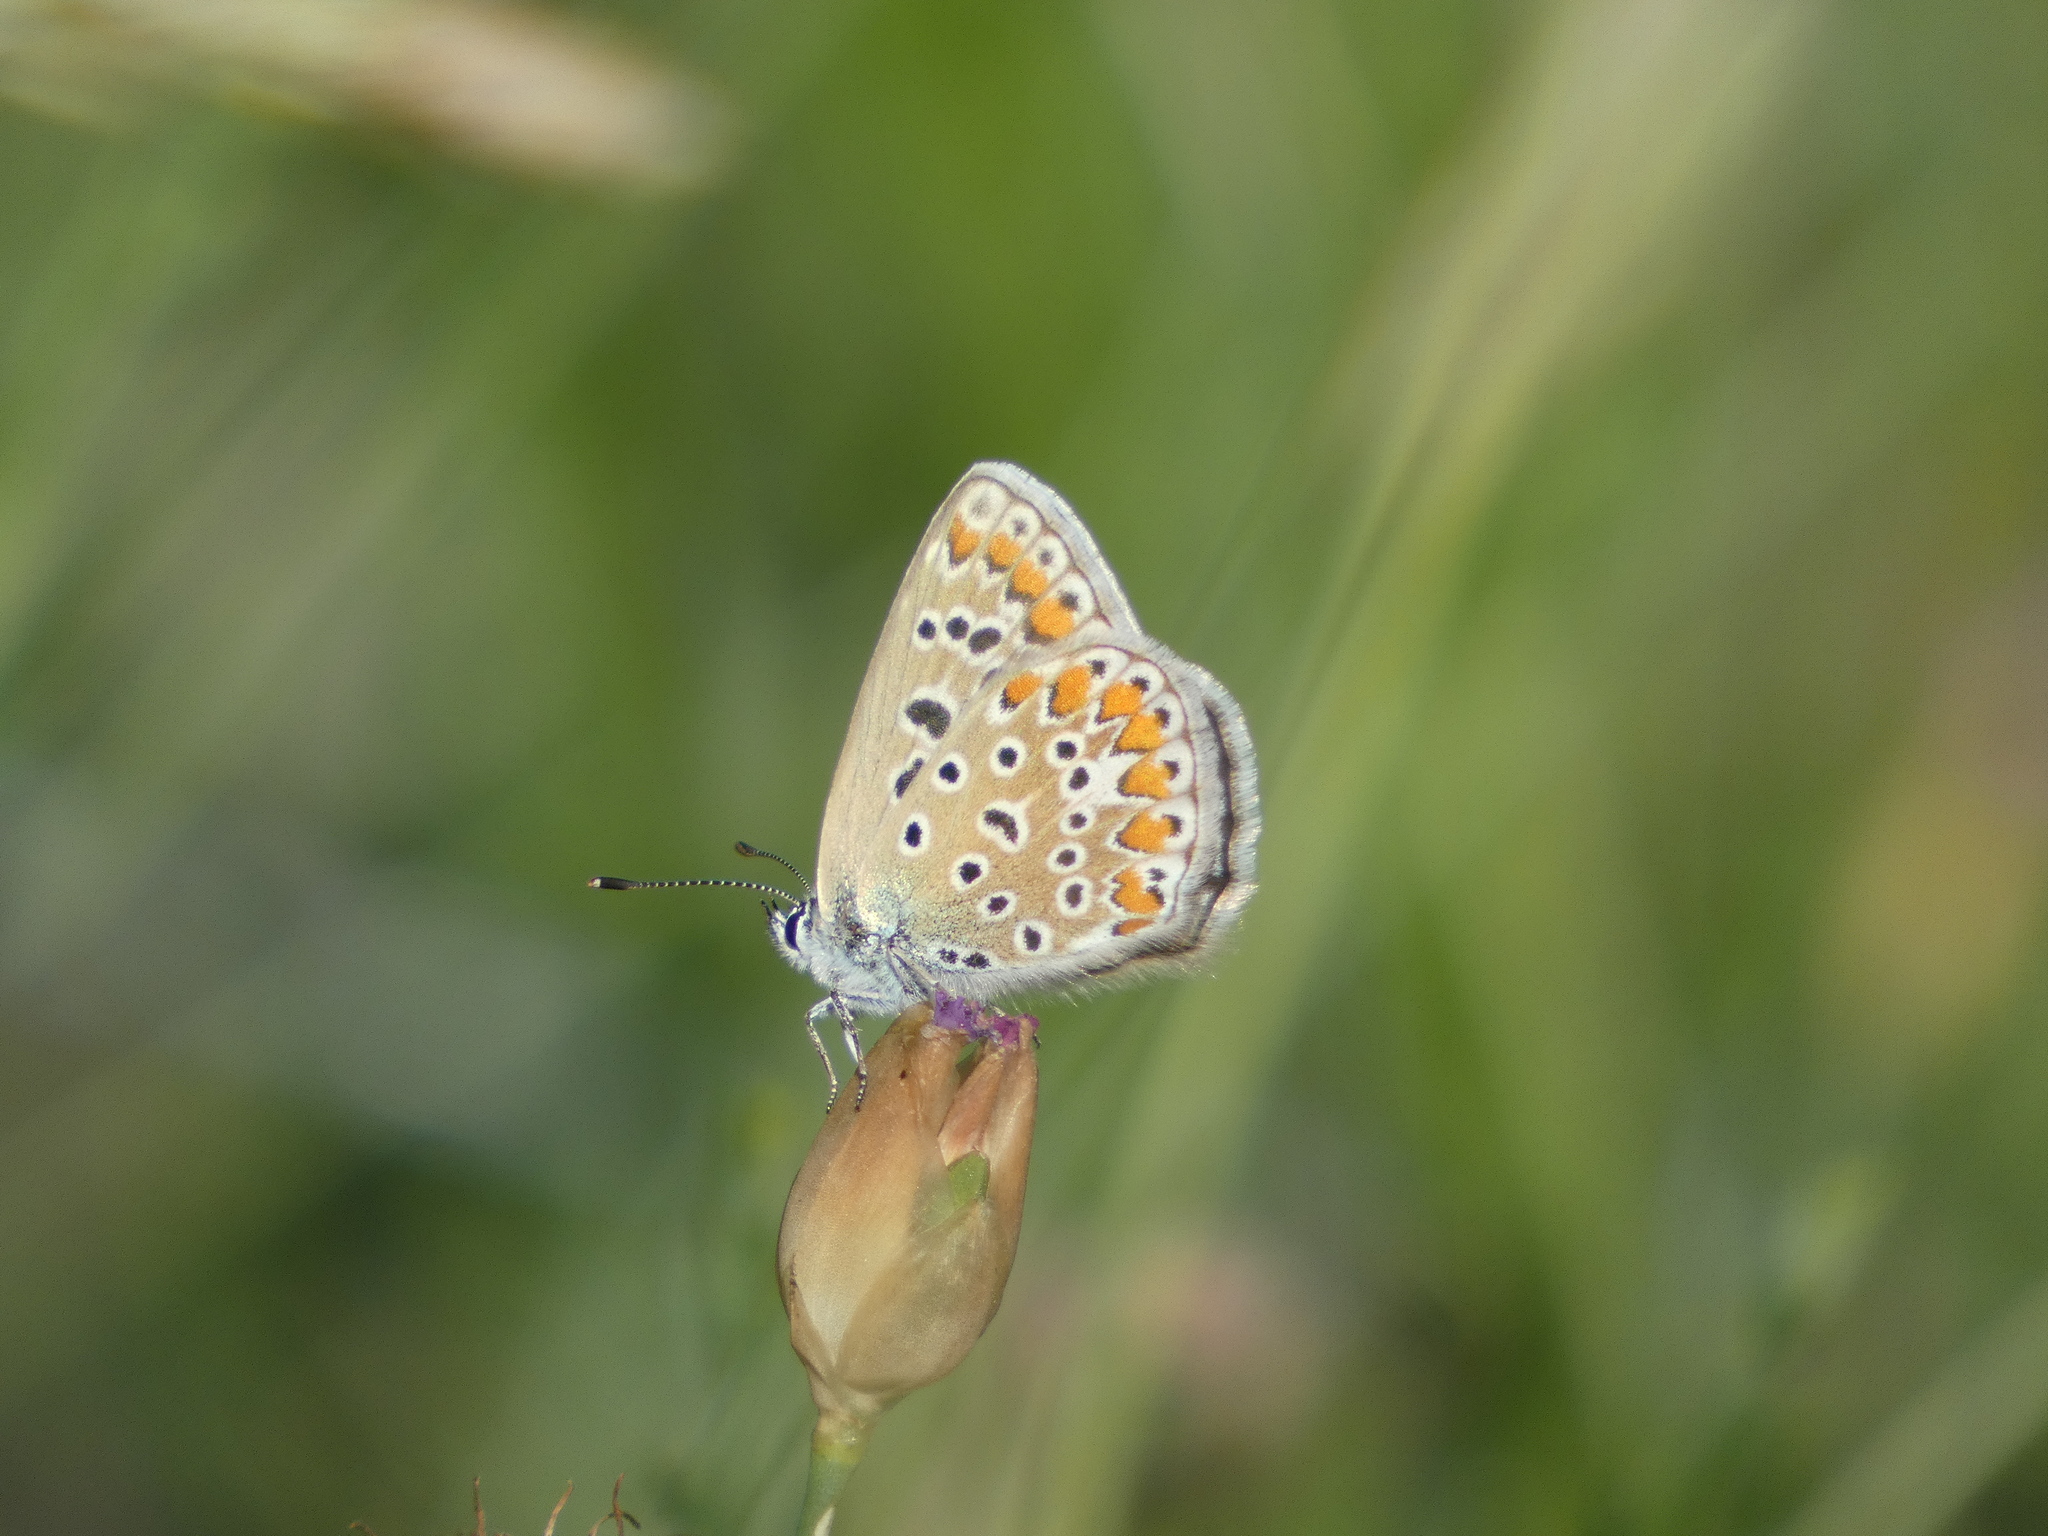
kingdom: Animalia
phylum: Arthropoda
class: Insecta
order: Lepidoptera
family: Lycaenidae
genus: Polyommatus
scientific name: Polyommatus icarus
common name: Common blue
